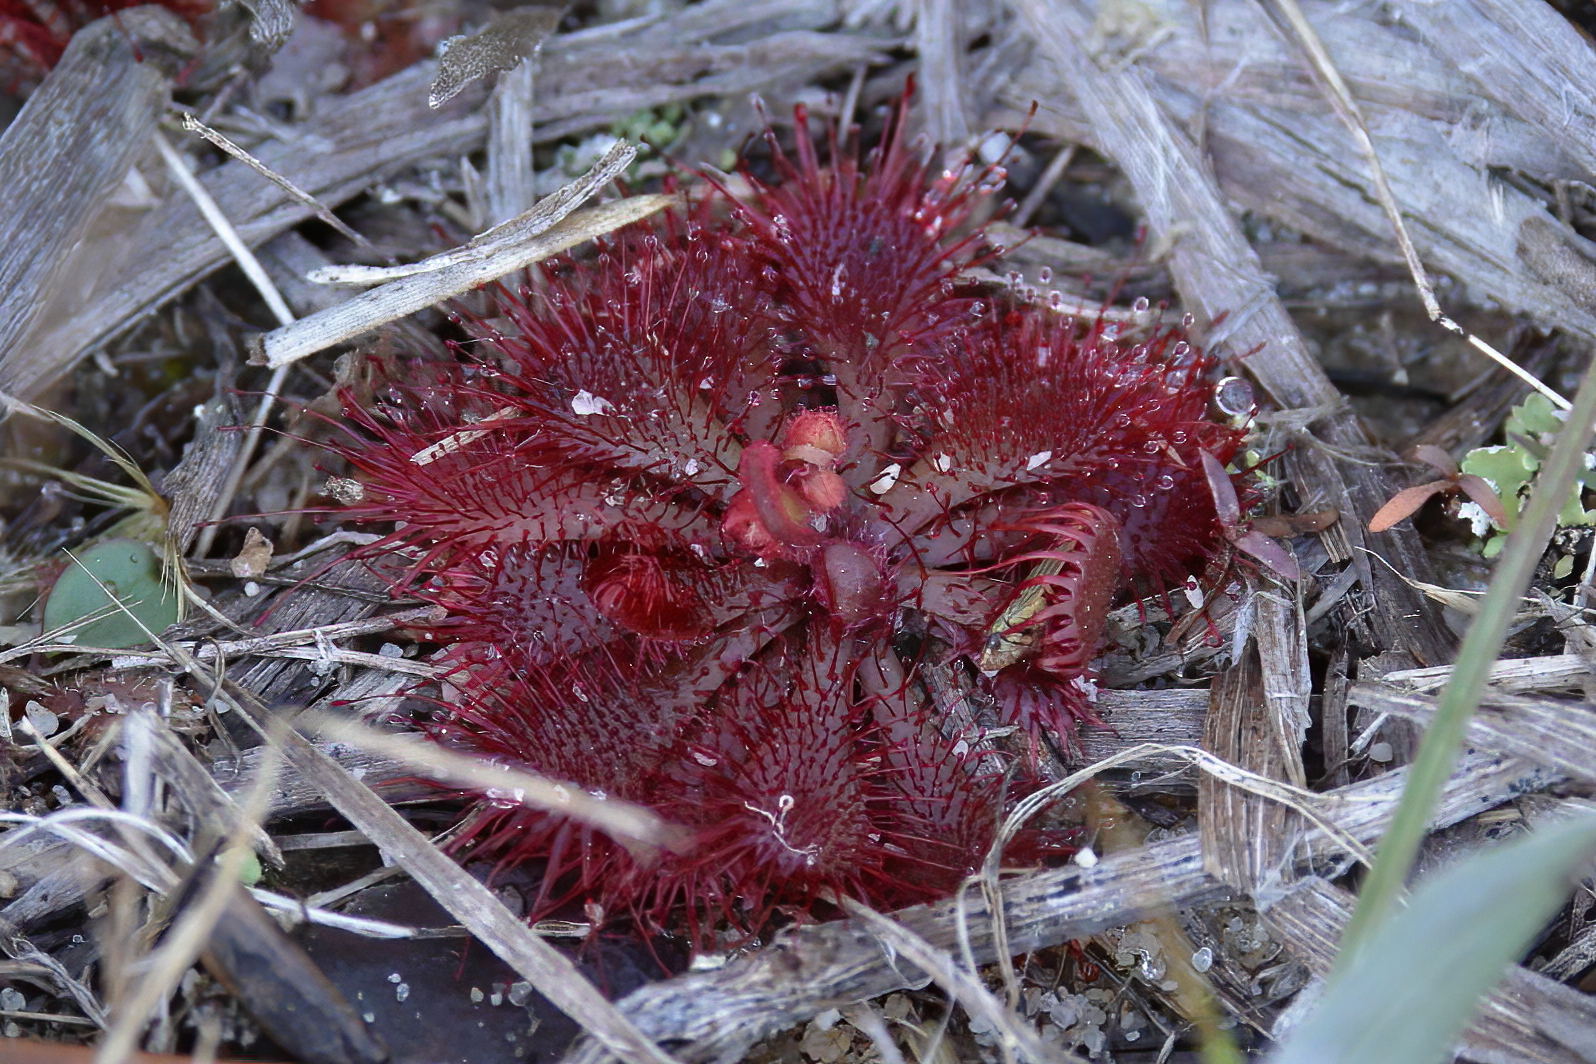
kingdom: Plantae
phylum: Tracheophyta
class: Magnoliopsida
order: Caryophyllales
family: Droseraceae
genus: Drosera
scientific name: Drosera brevifolia
